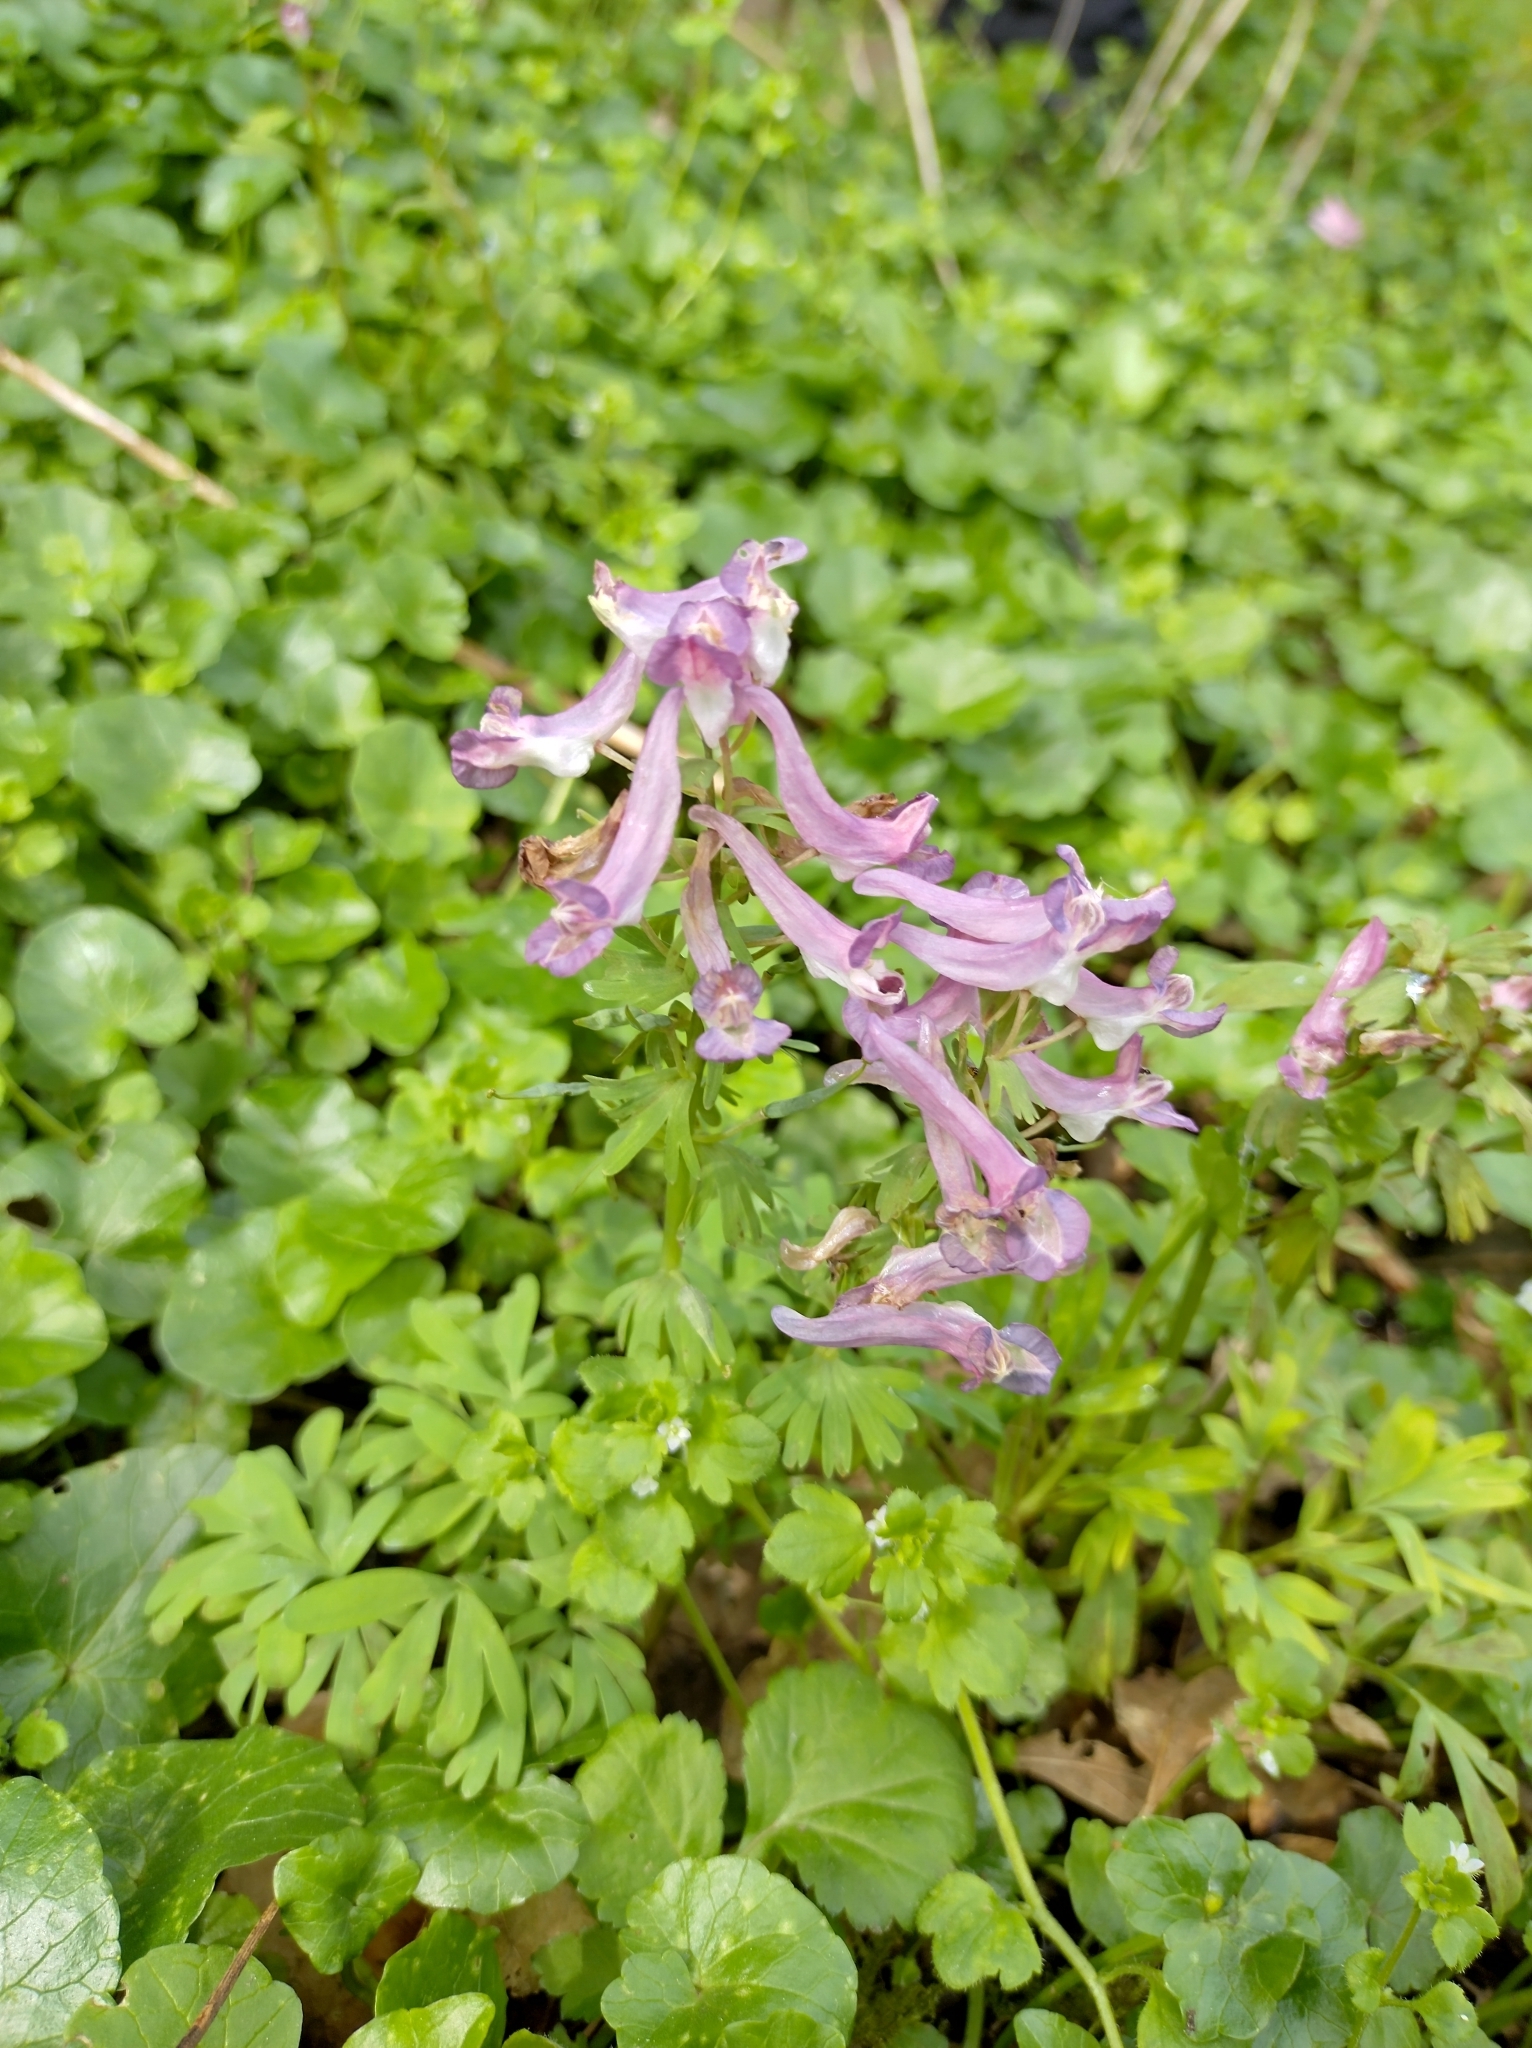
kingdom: Plantae
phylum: Tracheophyta
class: Magnoliopsida
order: Ranunculales
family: Papaveraceae
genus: Corydalis
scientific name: Corydalis solida
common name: Bird-in-a-bush
